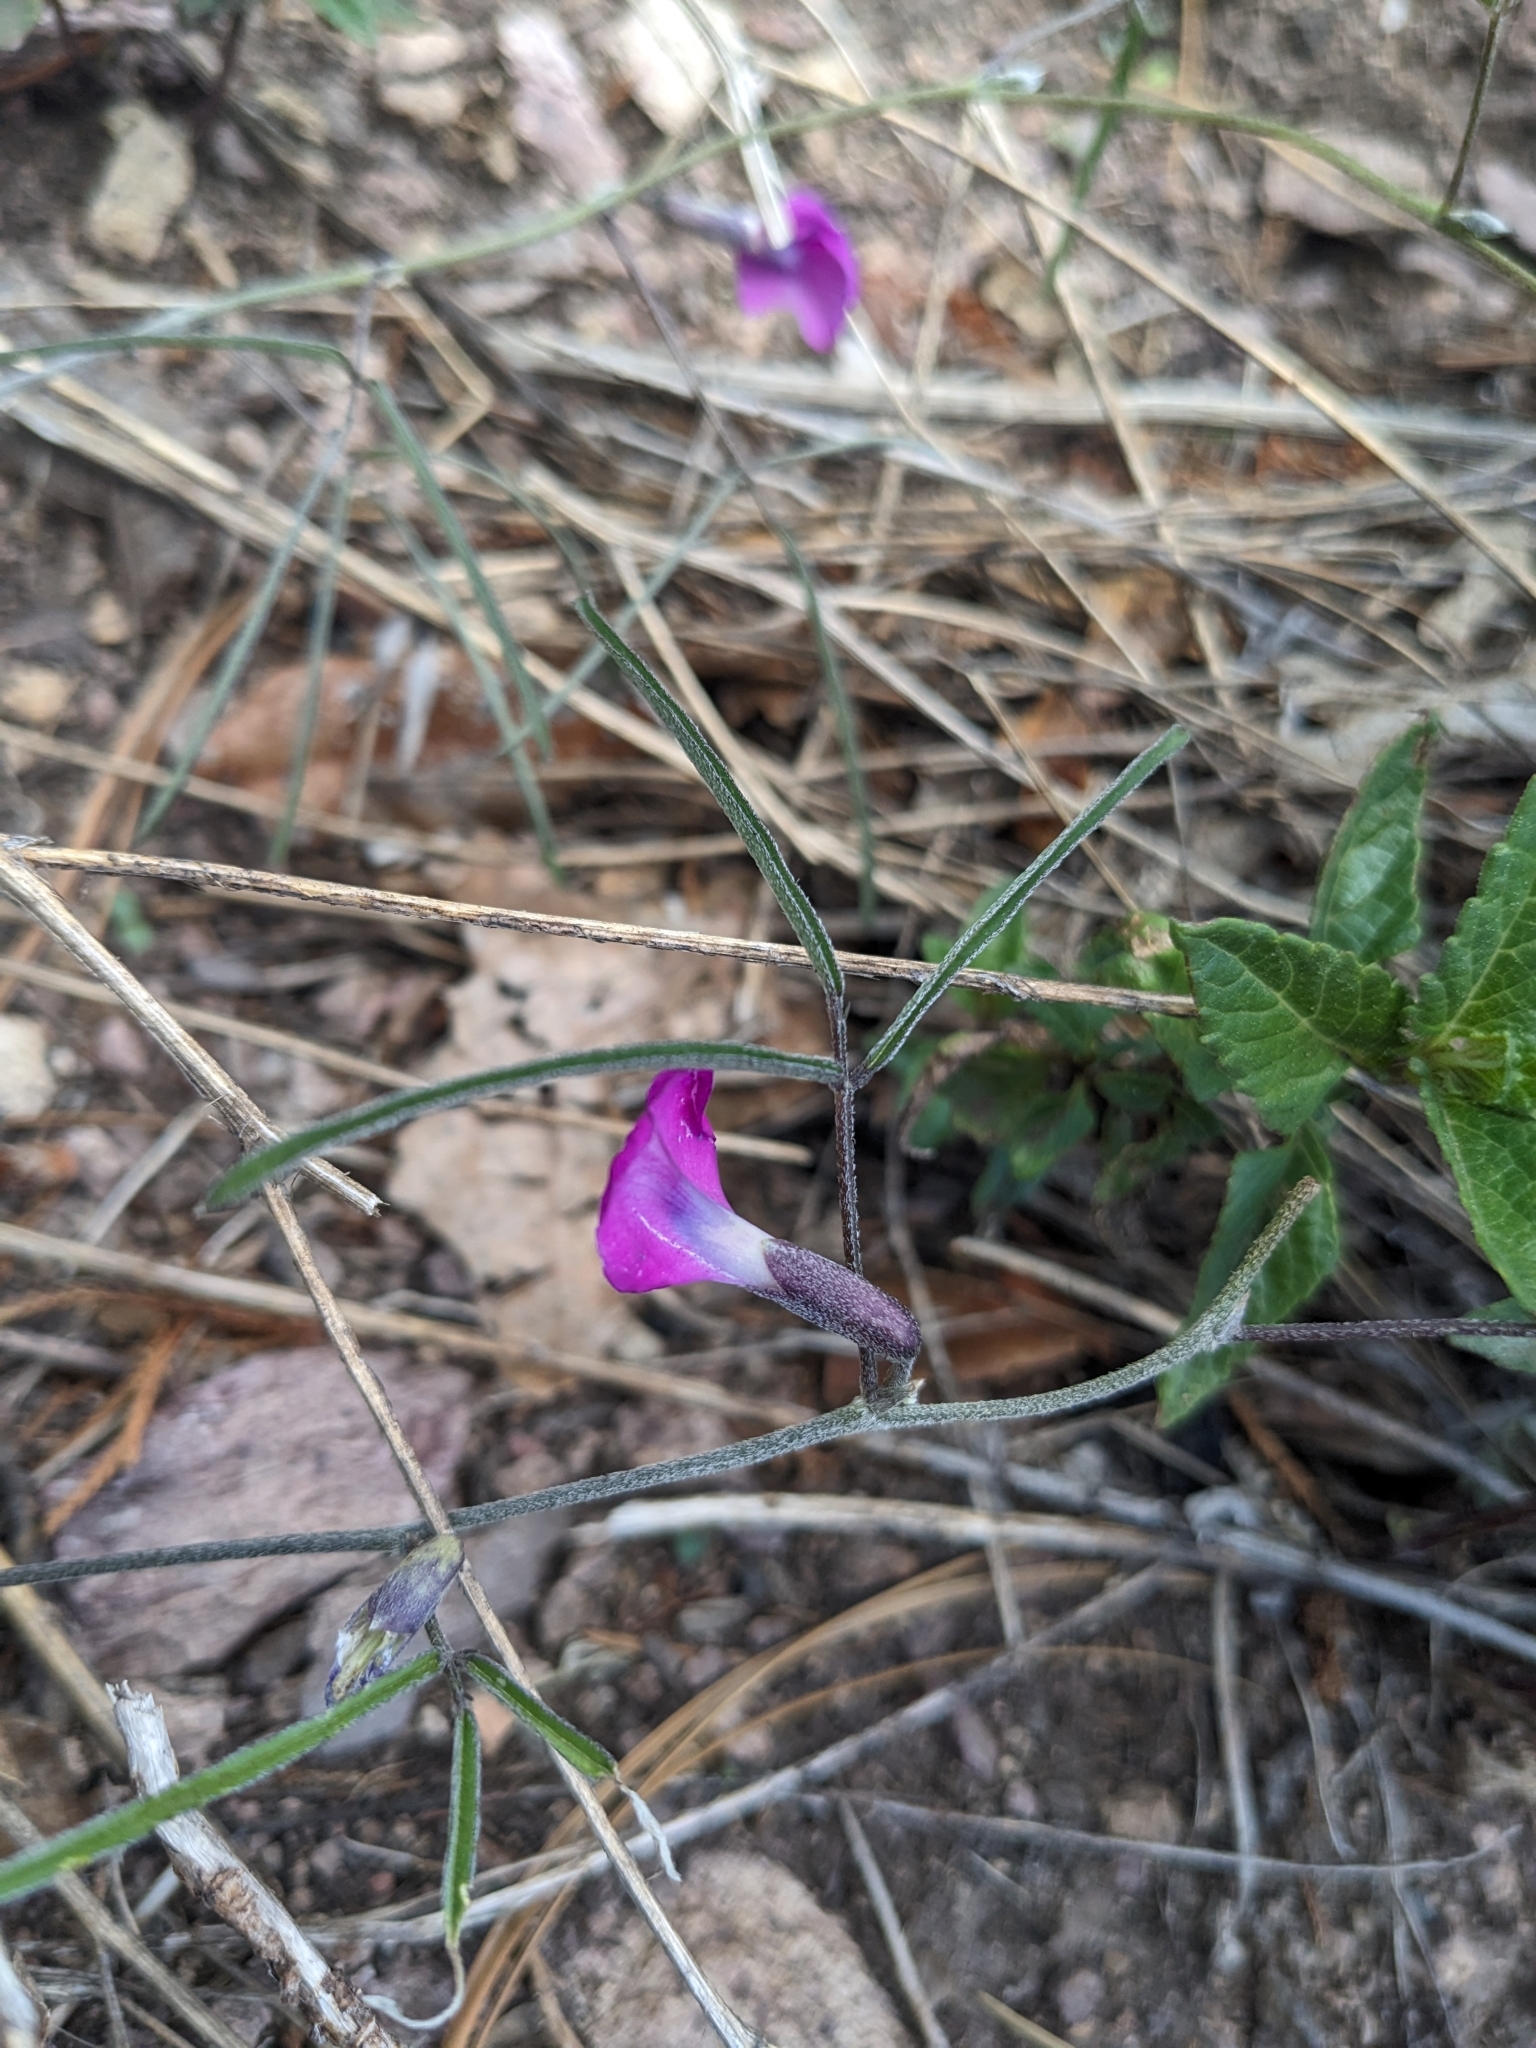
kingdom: Plantae
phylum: Tracheophyta
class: Magnoliopsida
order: Fabales
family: Fabaceae
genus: Cologania
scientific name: Cologania angustifolia
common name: Longleaf cologania
